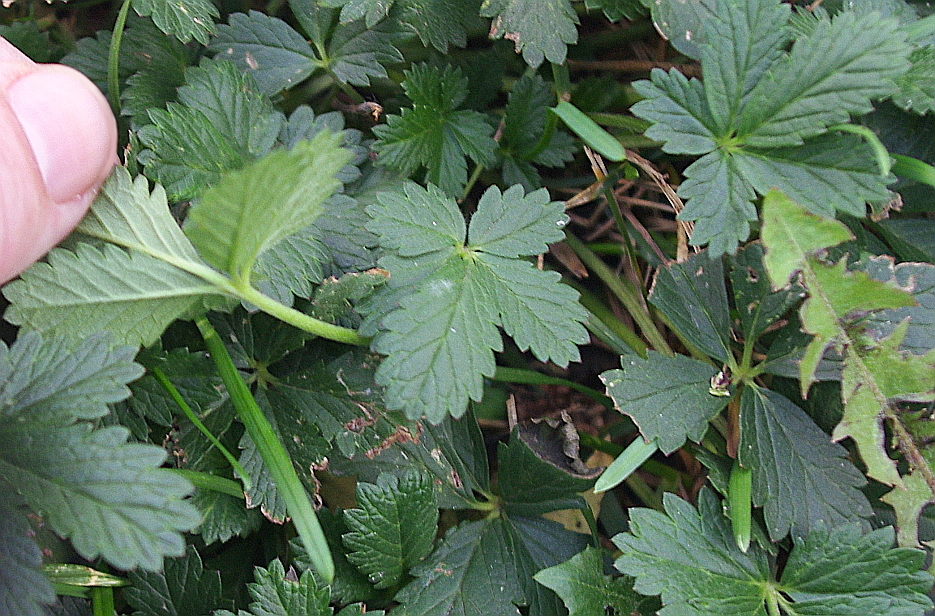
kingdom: Plantae
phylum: Tracheophyta
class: Magnoliopsida
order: Rosales
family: Rosaceae
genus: Potentilla
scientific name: Potentilla intermedia
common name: Downy cinquefoil
